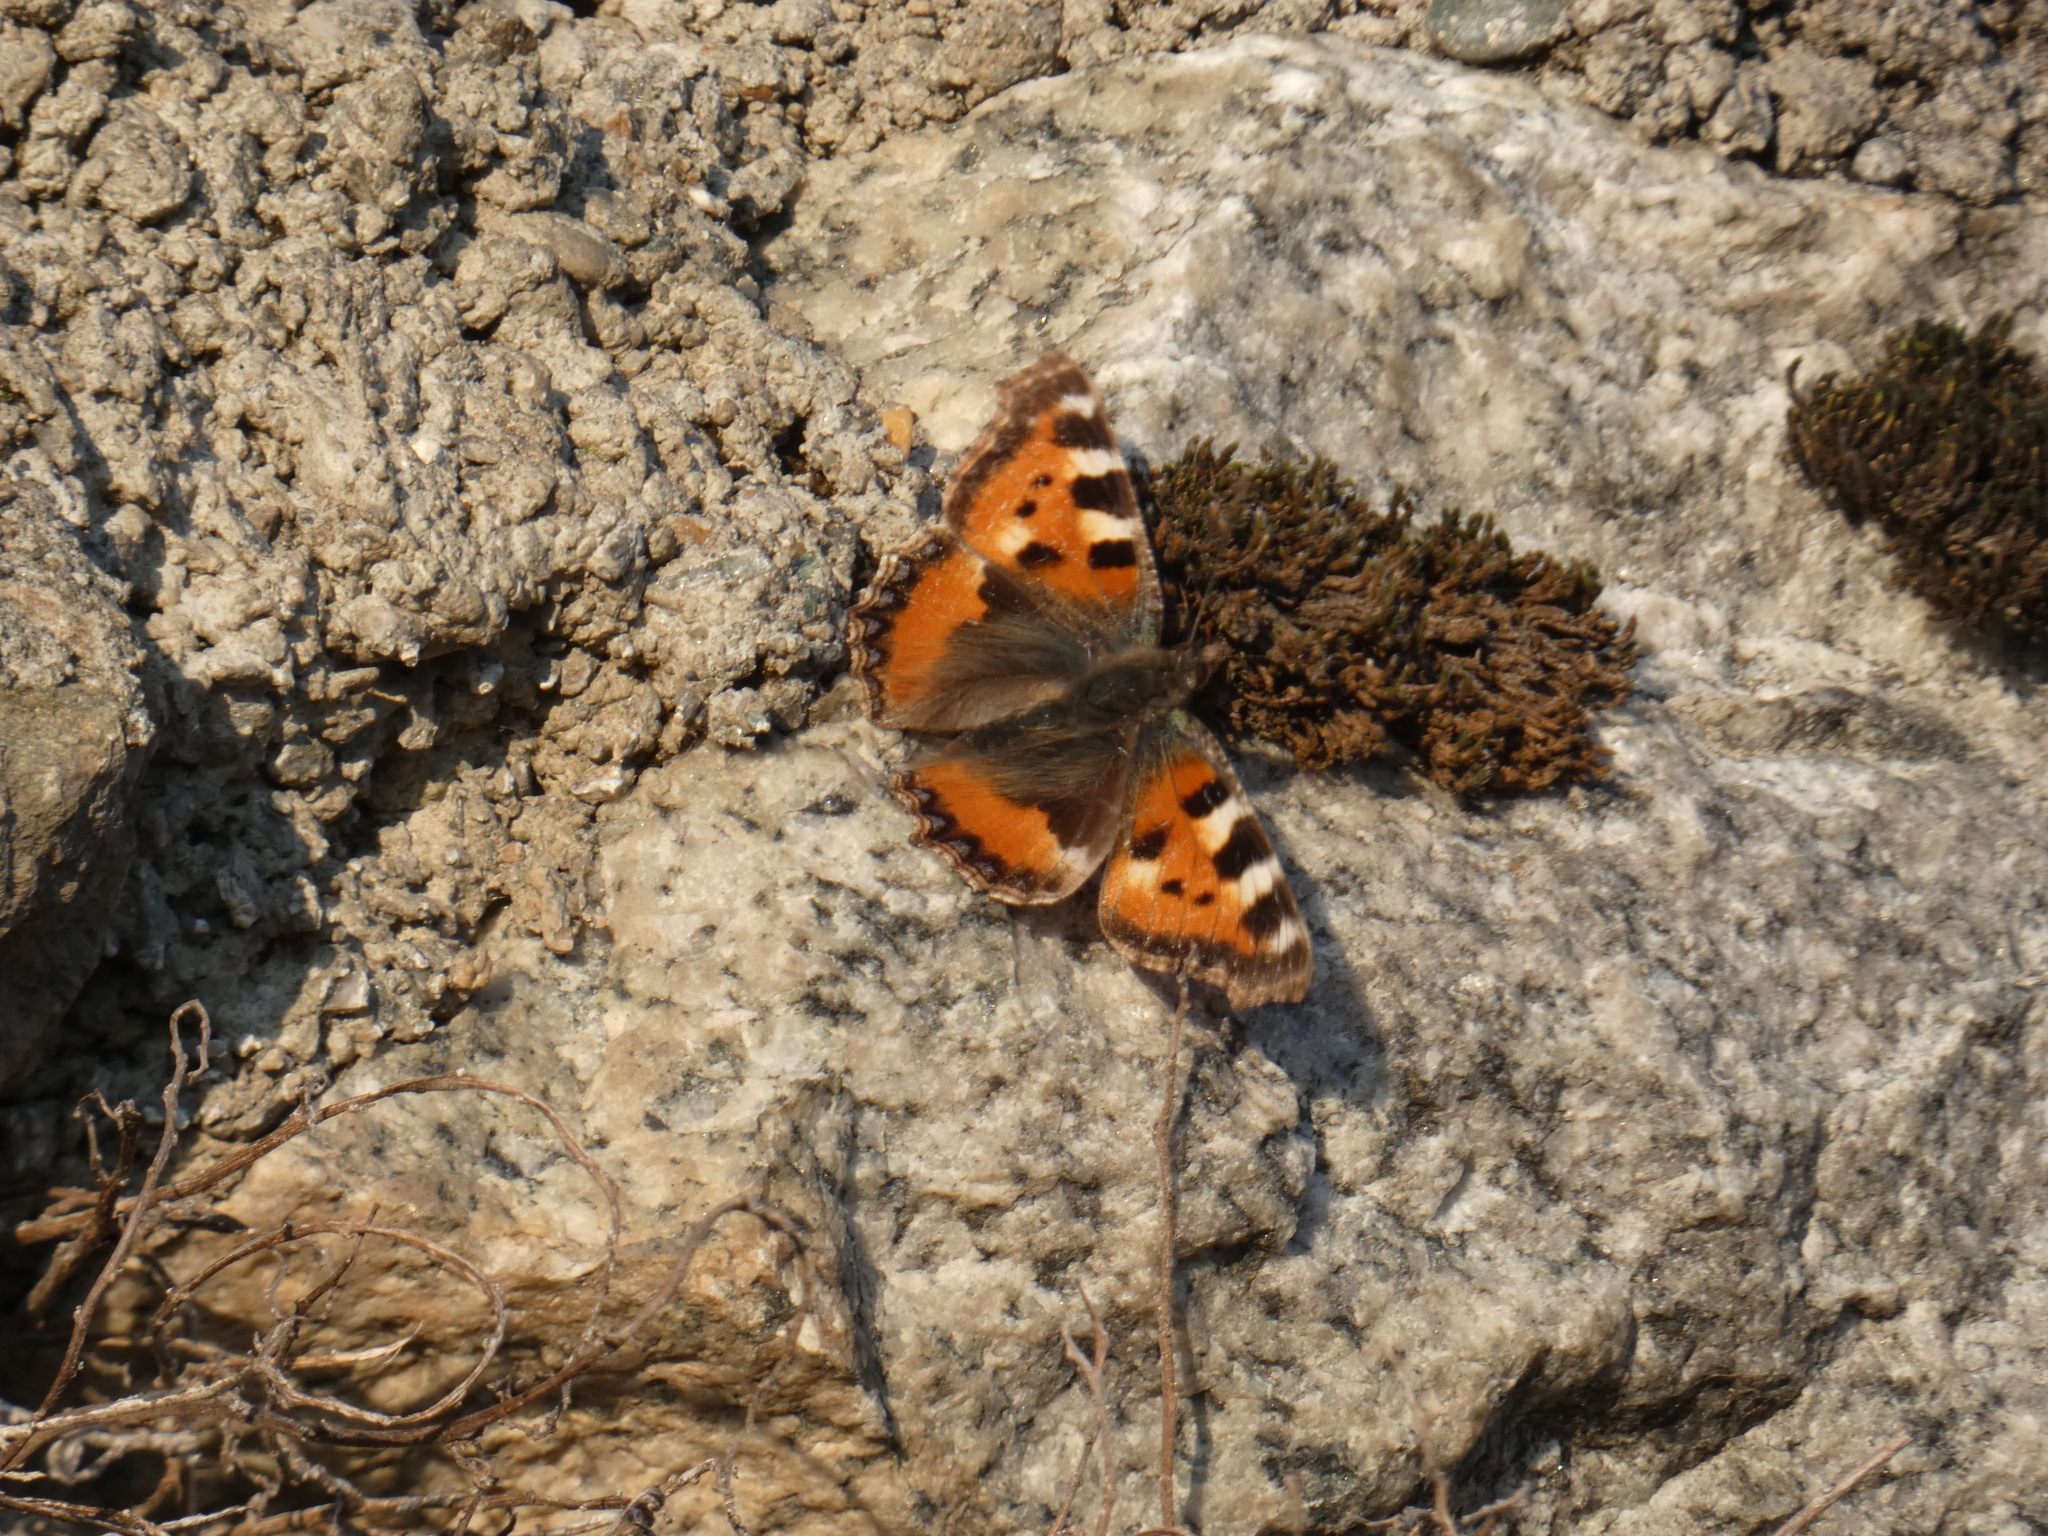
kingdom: Animalia
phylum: Arthropoda
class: Insecta
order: Lepidoptera
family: Nymphalidae
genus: Aglais
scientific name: Aglais urticae
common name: Small tortoiseshell
